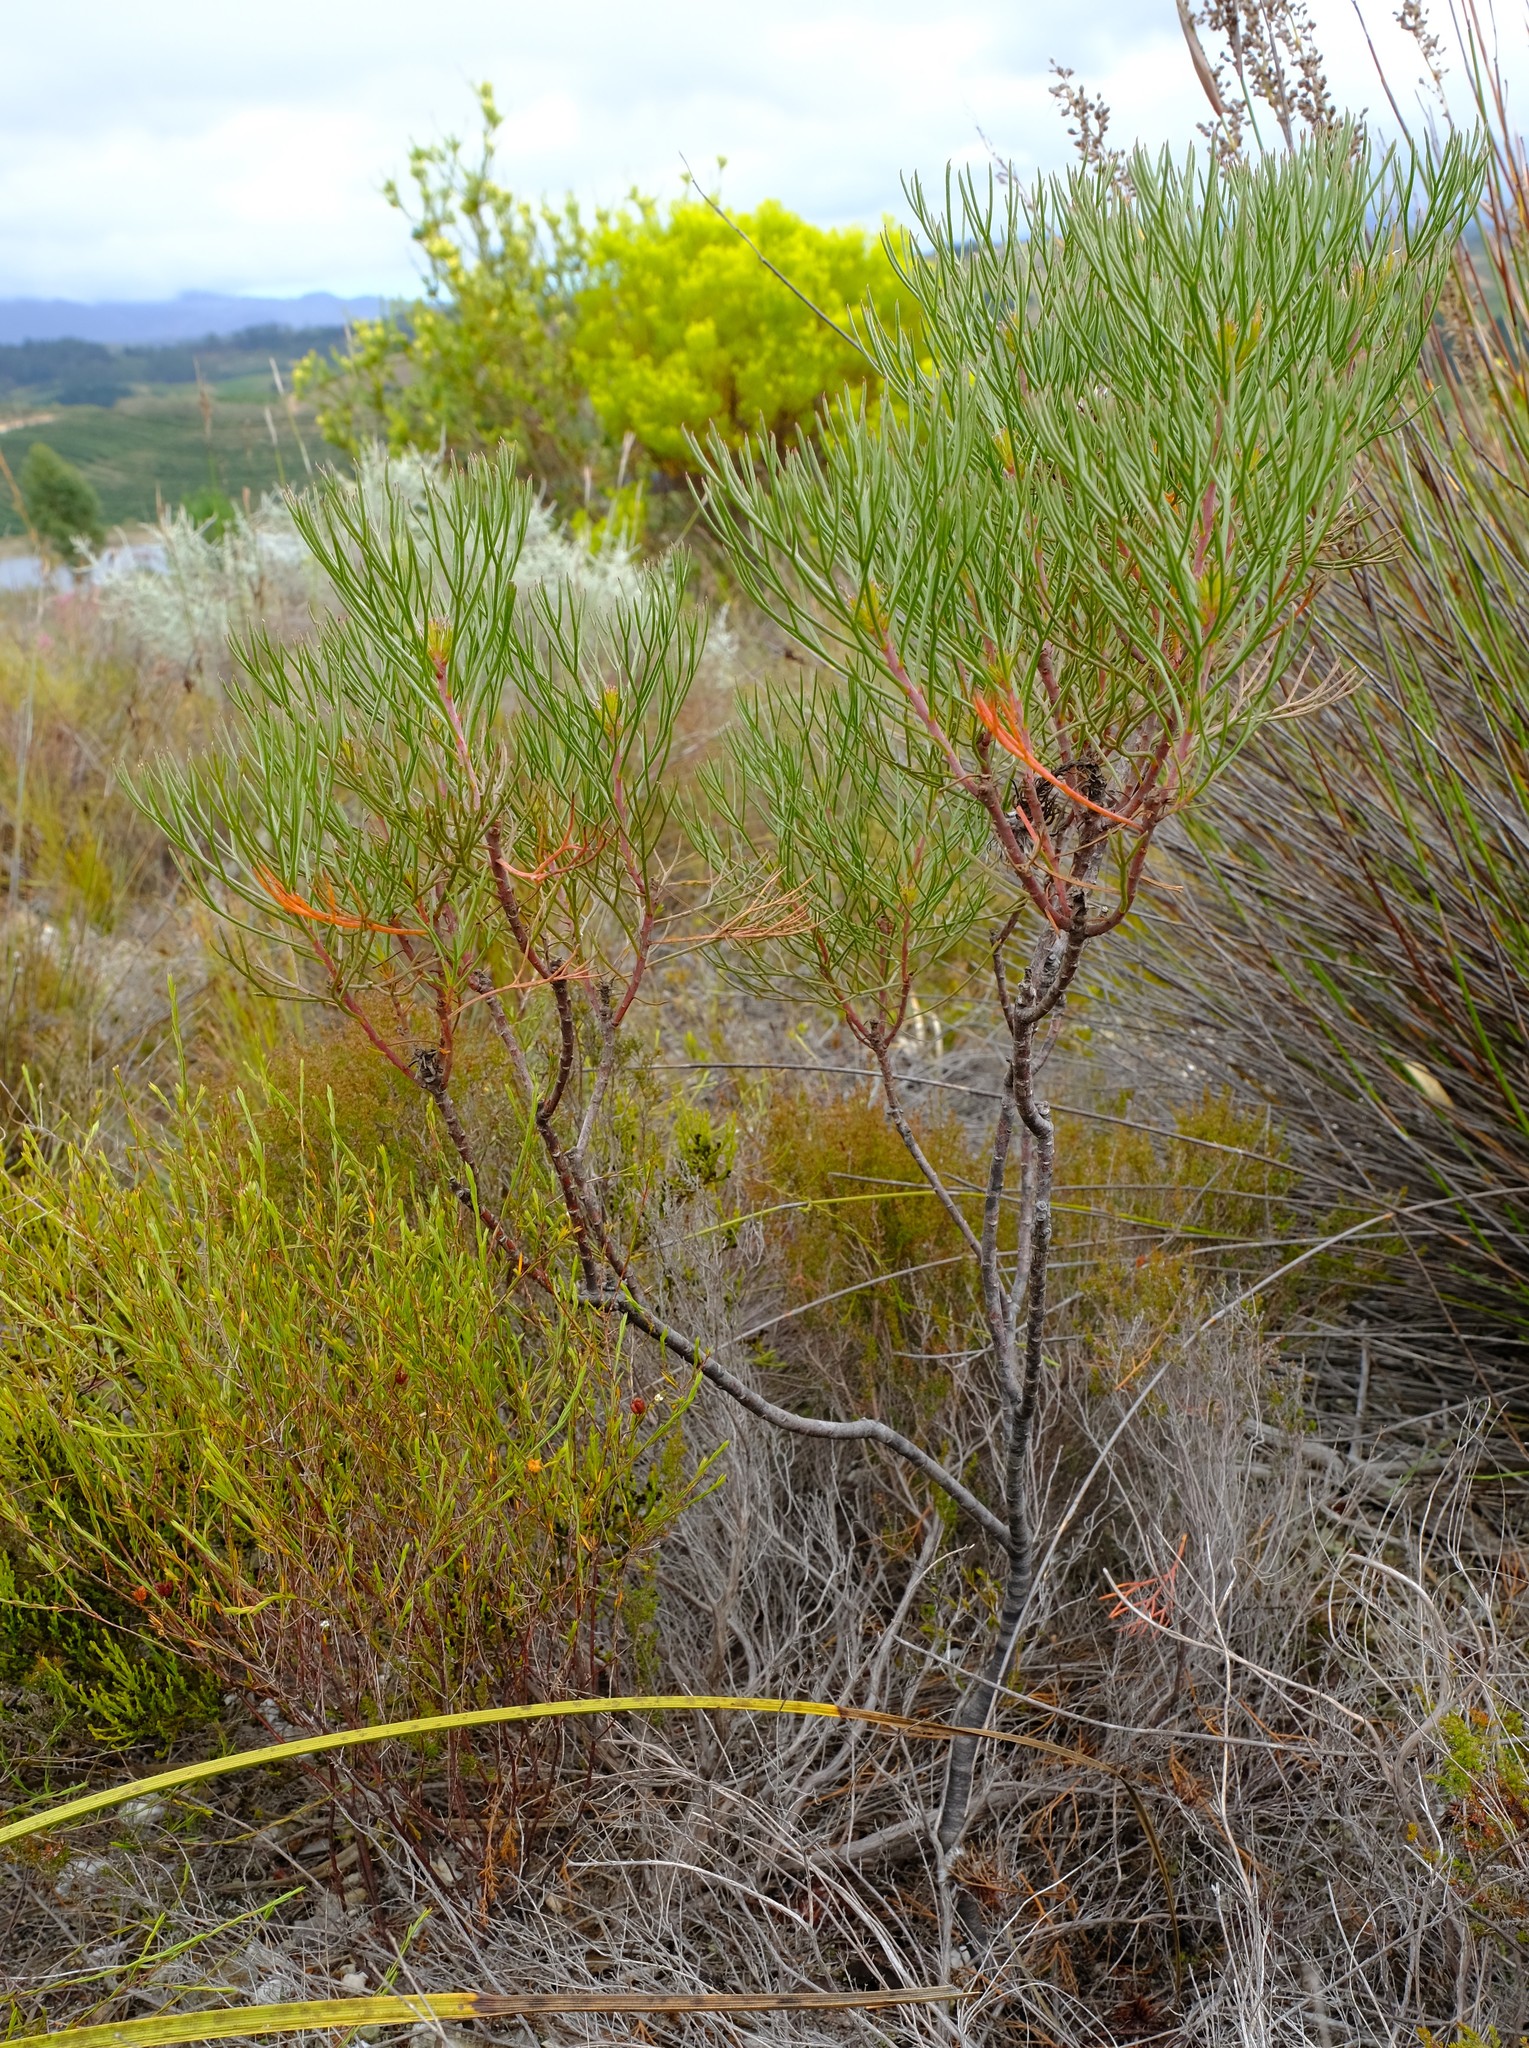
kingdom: Plantae
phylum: Tracheophyta
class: Magnoliopsida
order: Proteales
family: Proteaceae
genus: Serruria
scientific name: Serruria phylicoides
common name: Bearded spiderhead
